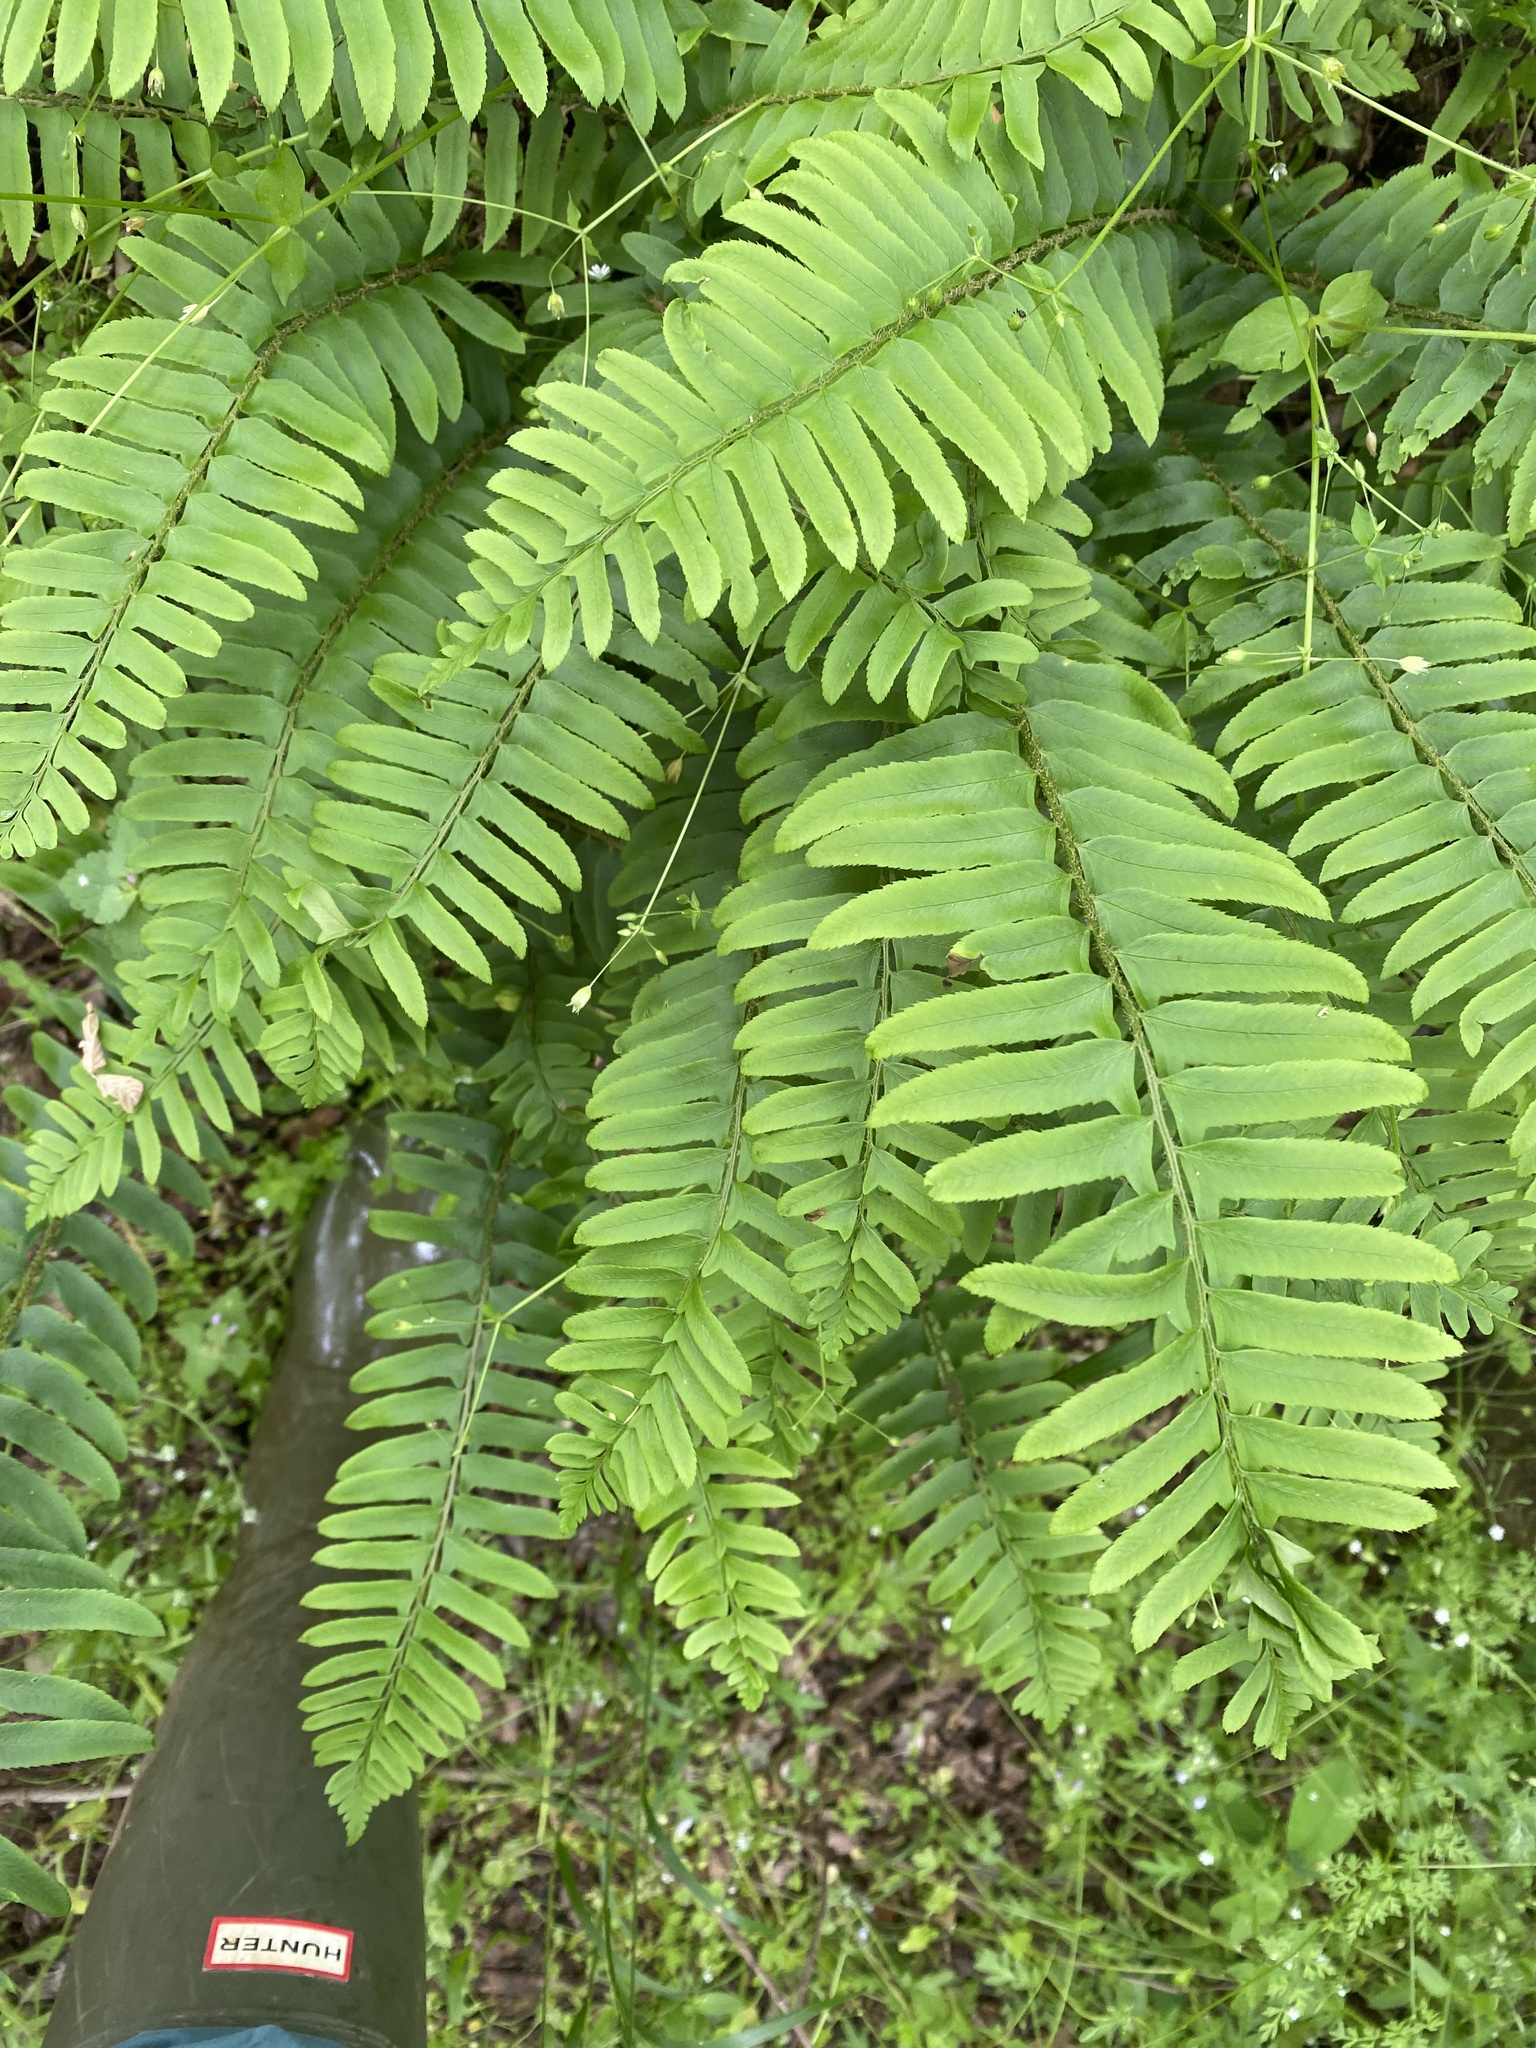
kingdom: Plantae
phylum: Tracheophyta
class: Polypodiopsida
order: Polypodiales
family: Dryopteridaceae
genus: Polystichum
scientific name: Polystichum acrostichoides
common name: Christmas fern
